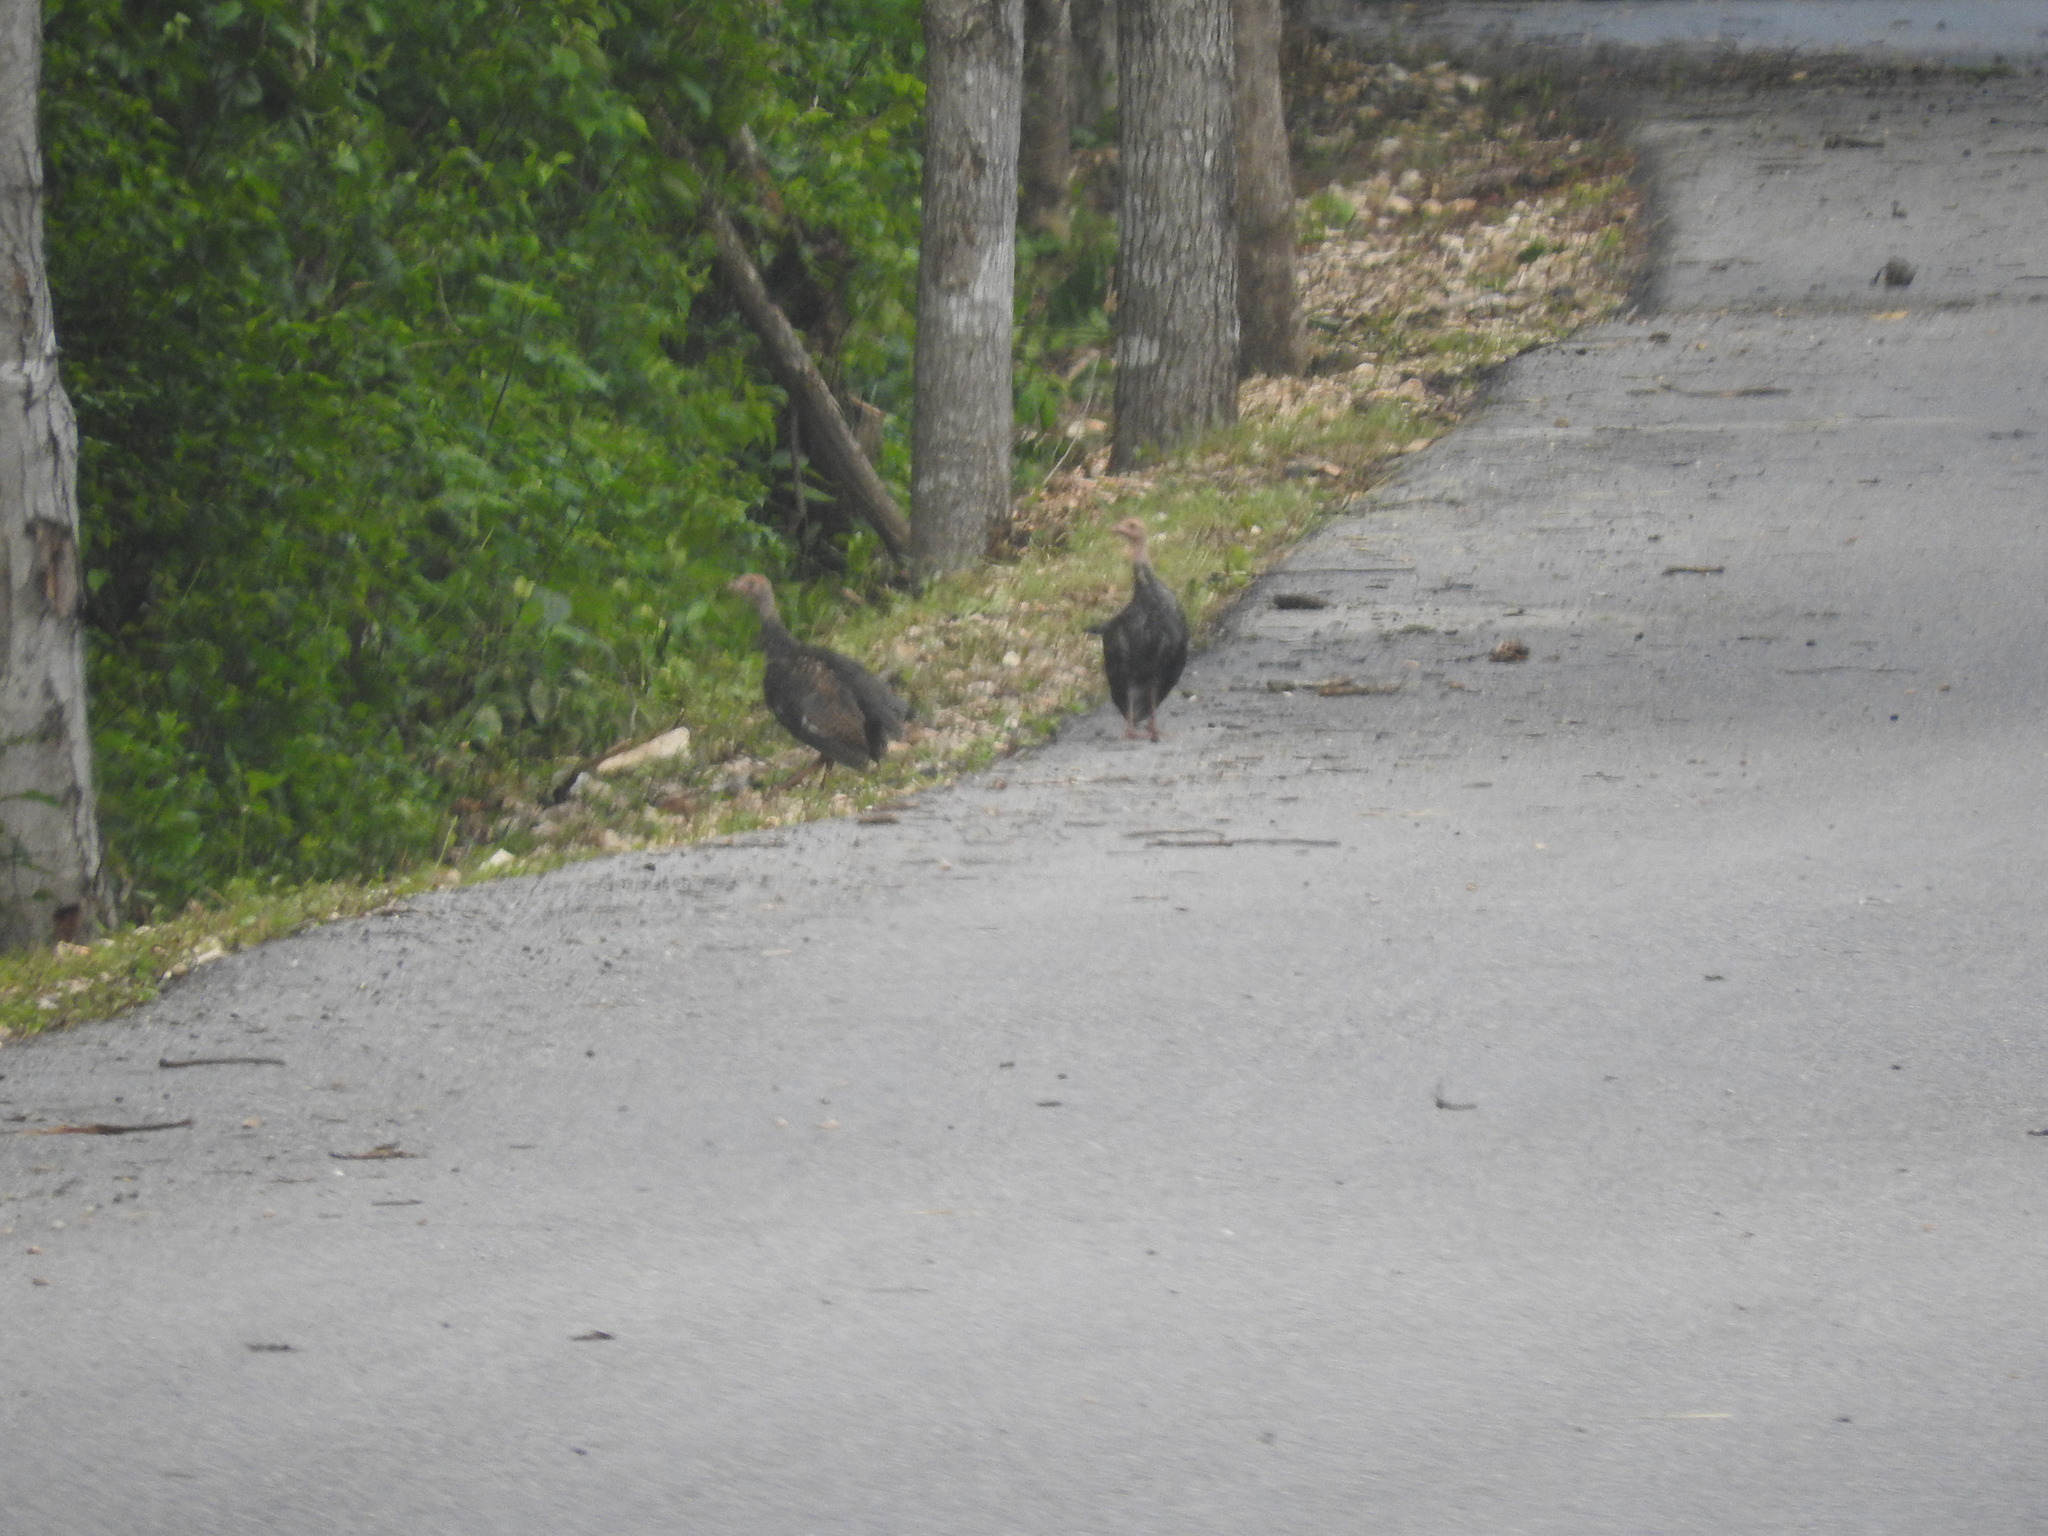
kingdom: Animalia
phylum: Chordata
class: Aves
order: Galliformes
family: Phasianidae
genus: Meleagris
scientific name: Meleagris ocellata
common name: Ocellated turkey
